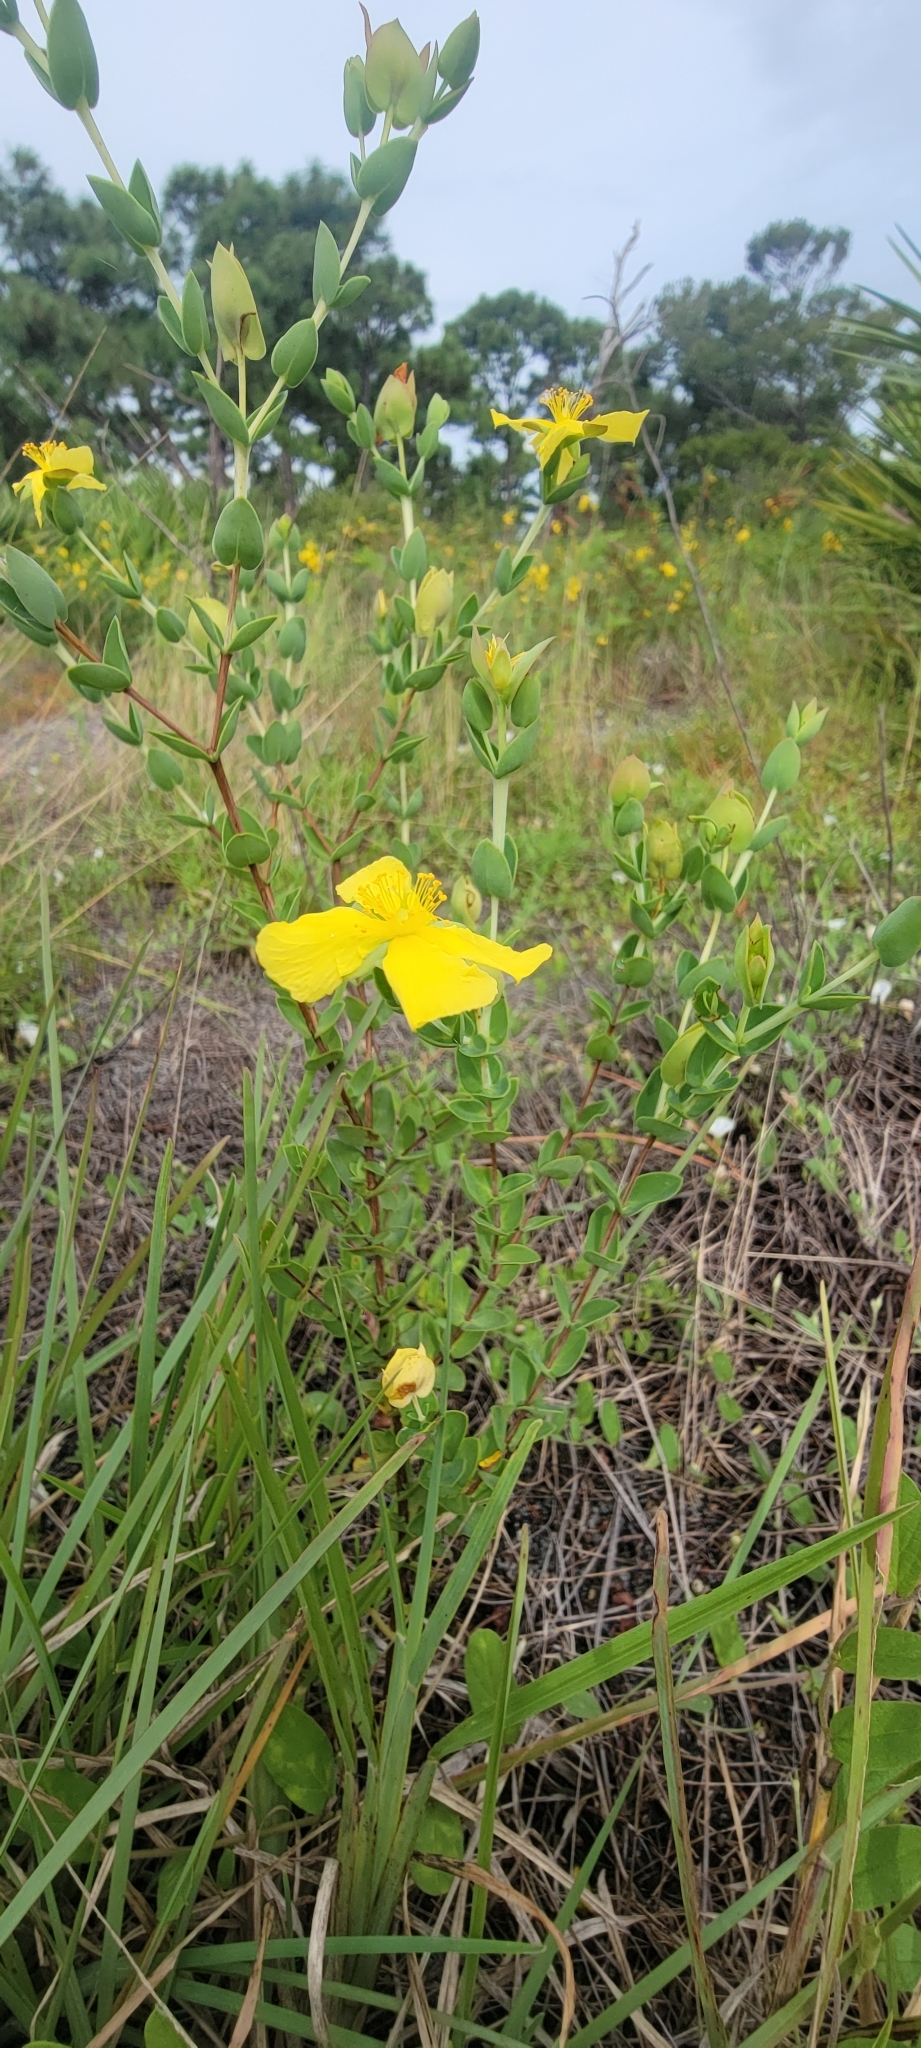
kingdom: Plantae
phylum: Tracheophyta
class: Magnoliopsida
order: Malpighiales
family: Hypericaceae
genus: Hypericum
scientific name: Hypericum tetrapetalum
